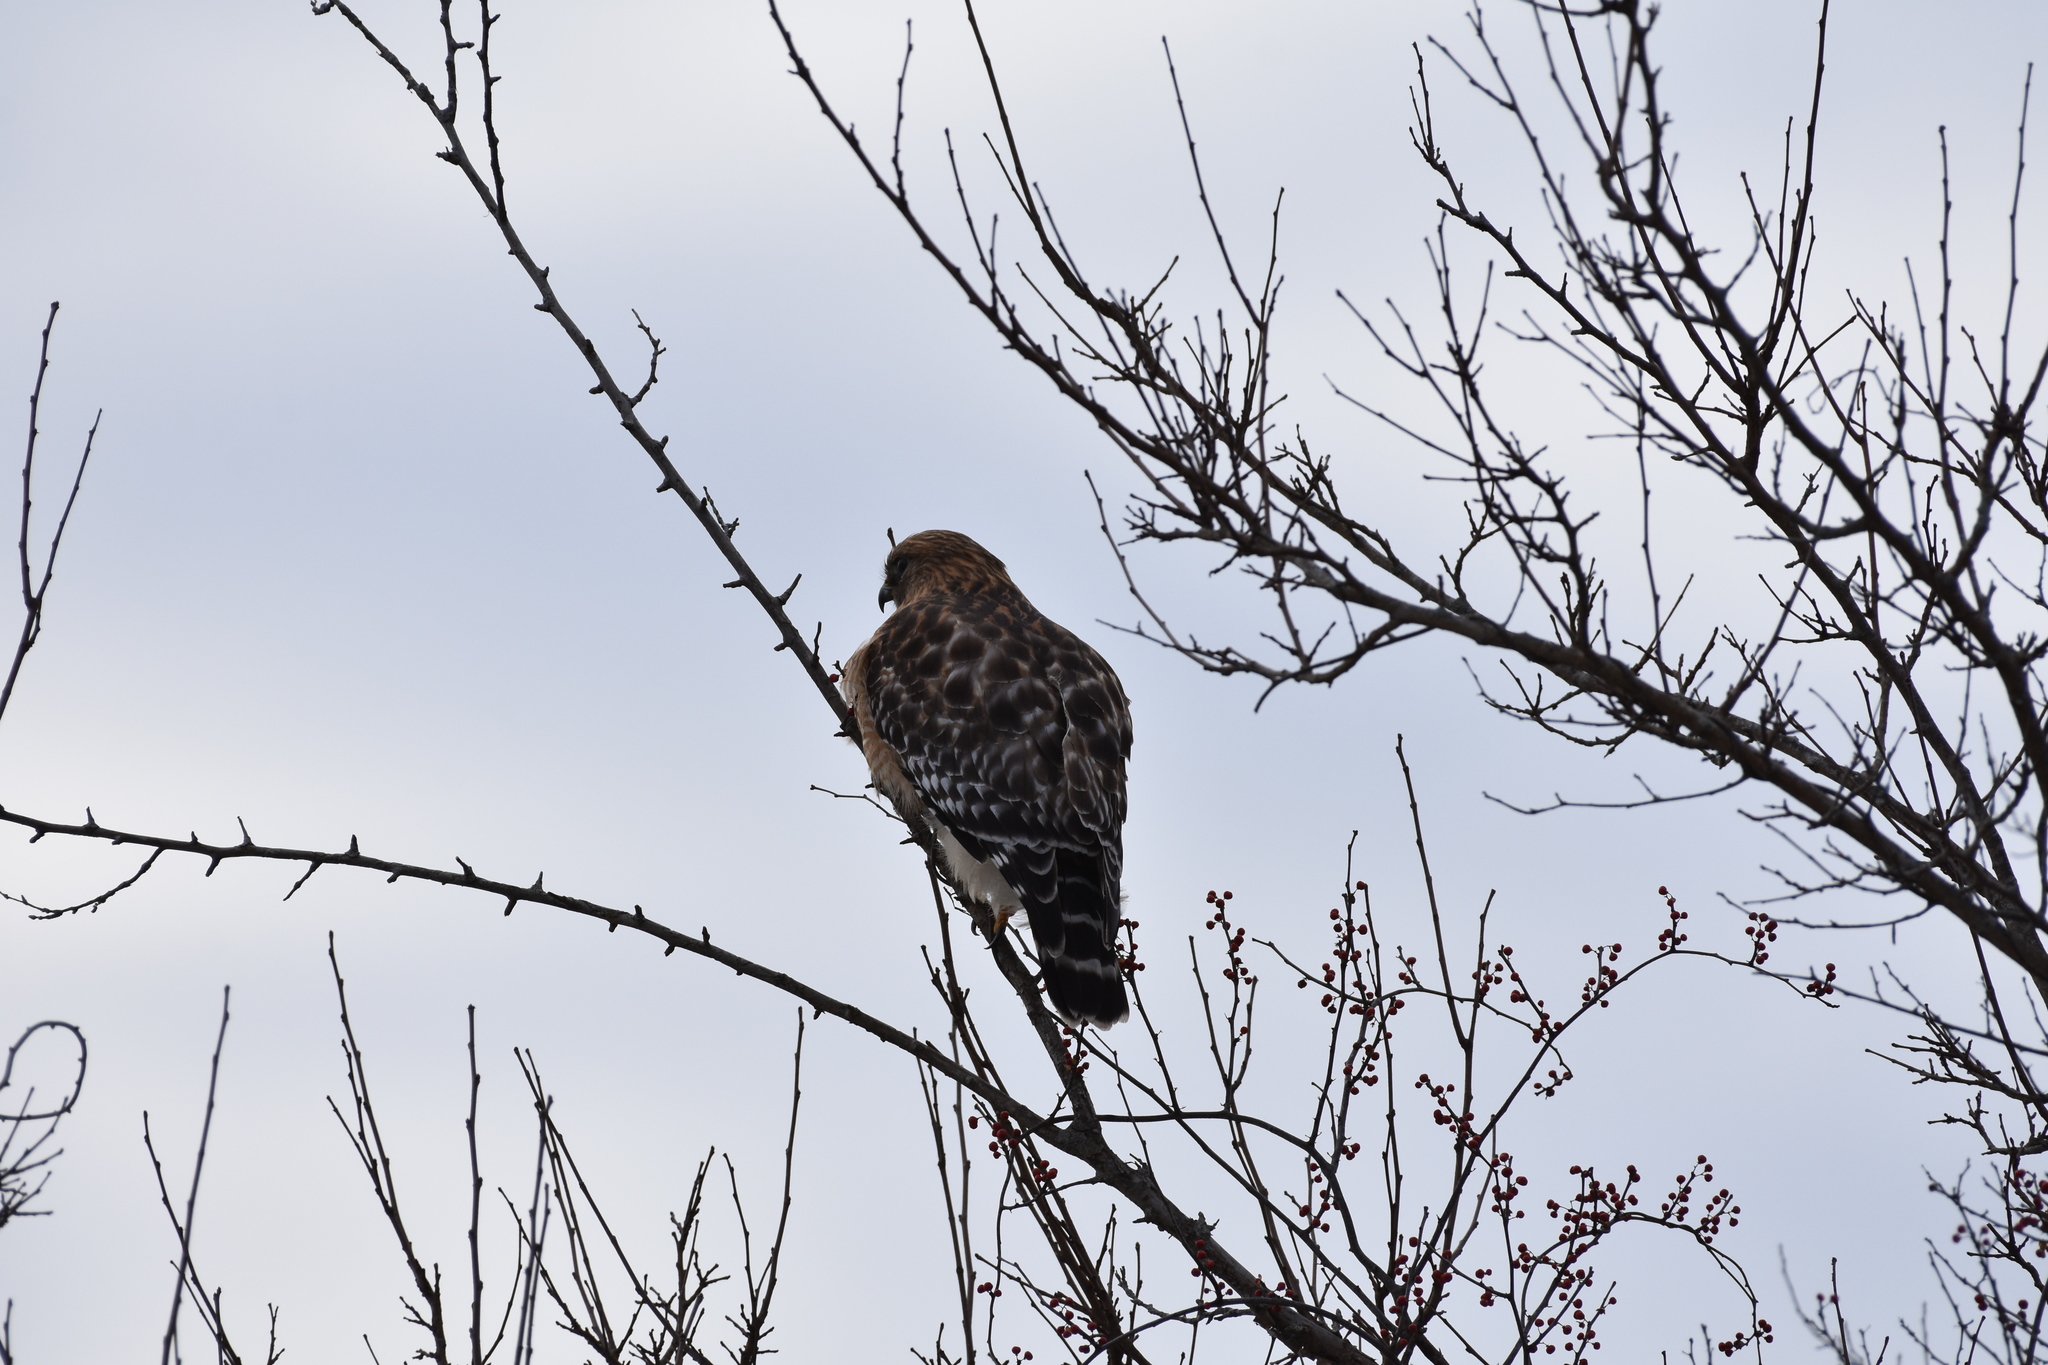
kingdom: Animalia
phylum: Chordata
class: Aves
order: Accipitriformes
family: Accipitridae
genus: Buteo
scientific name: Buteo lineatus
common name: Red-shouldered hawk
